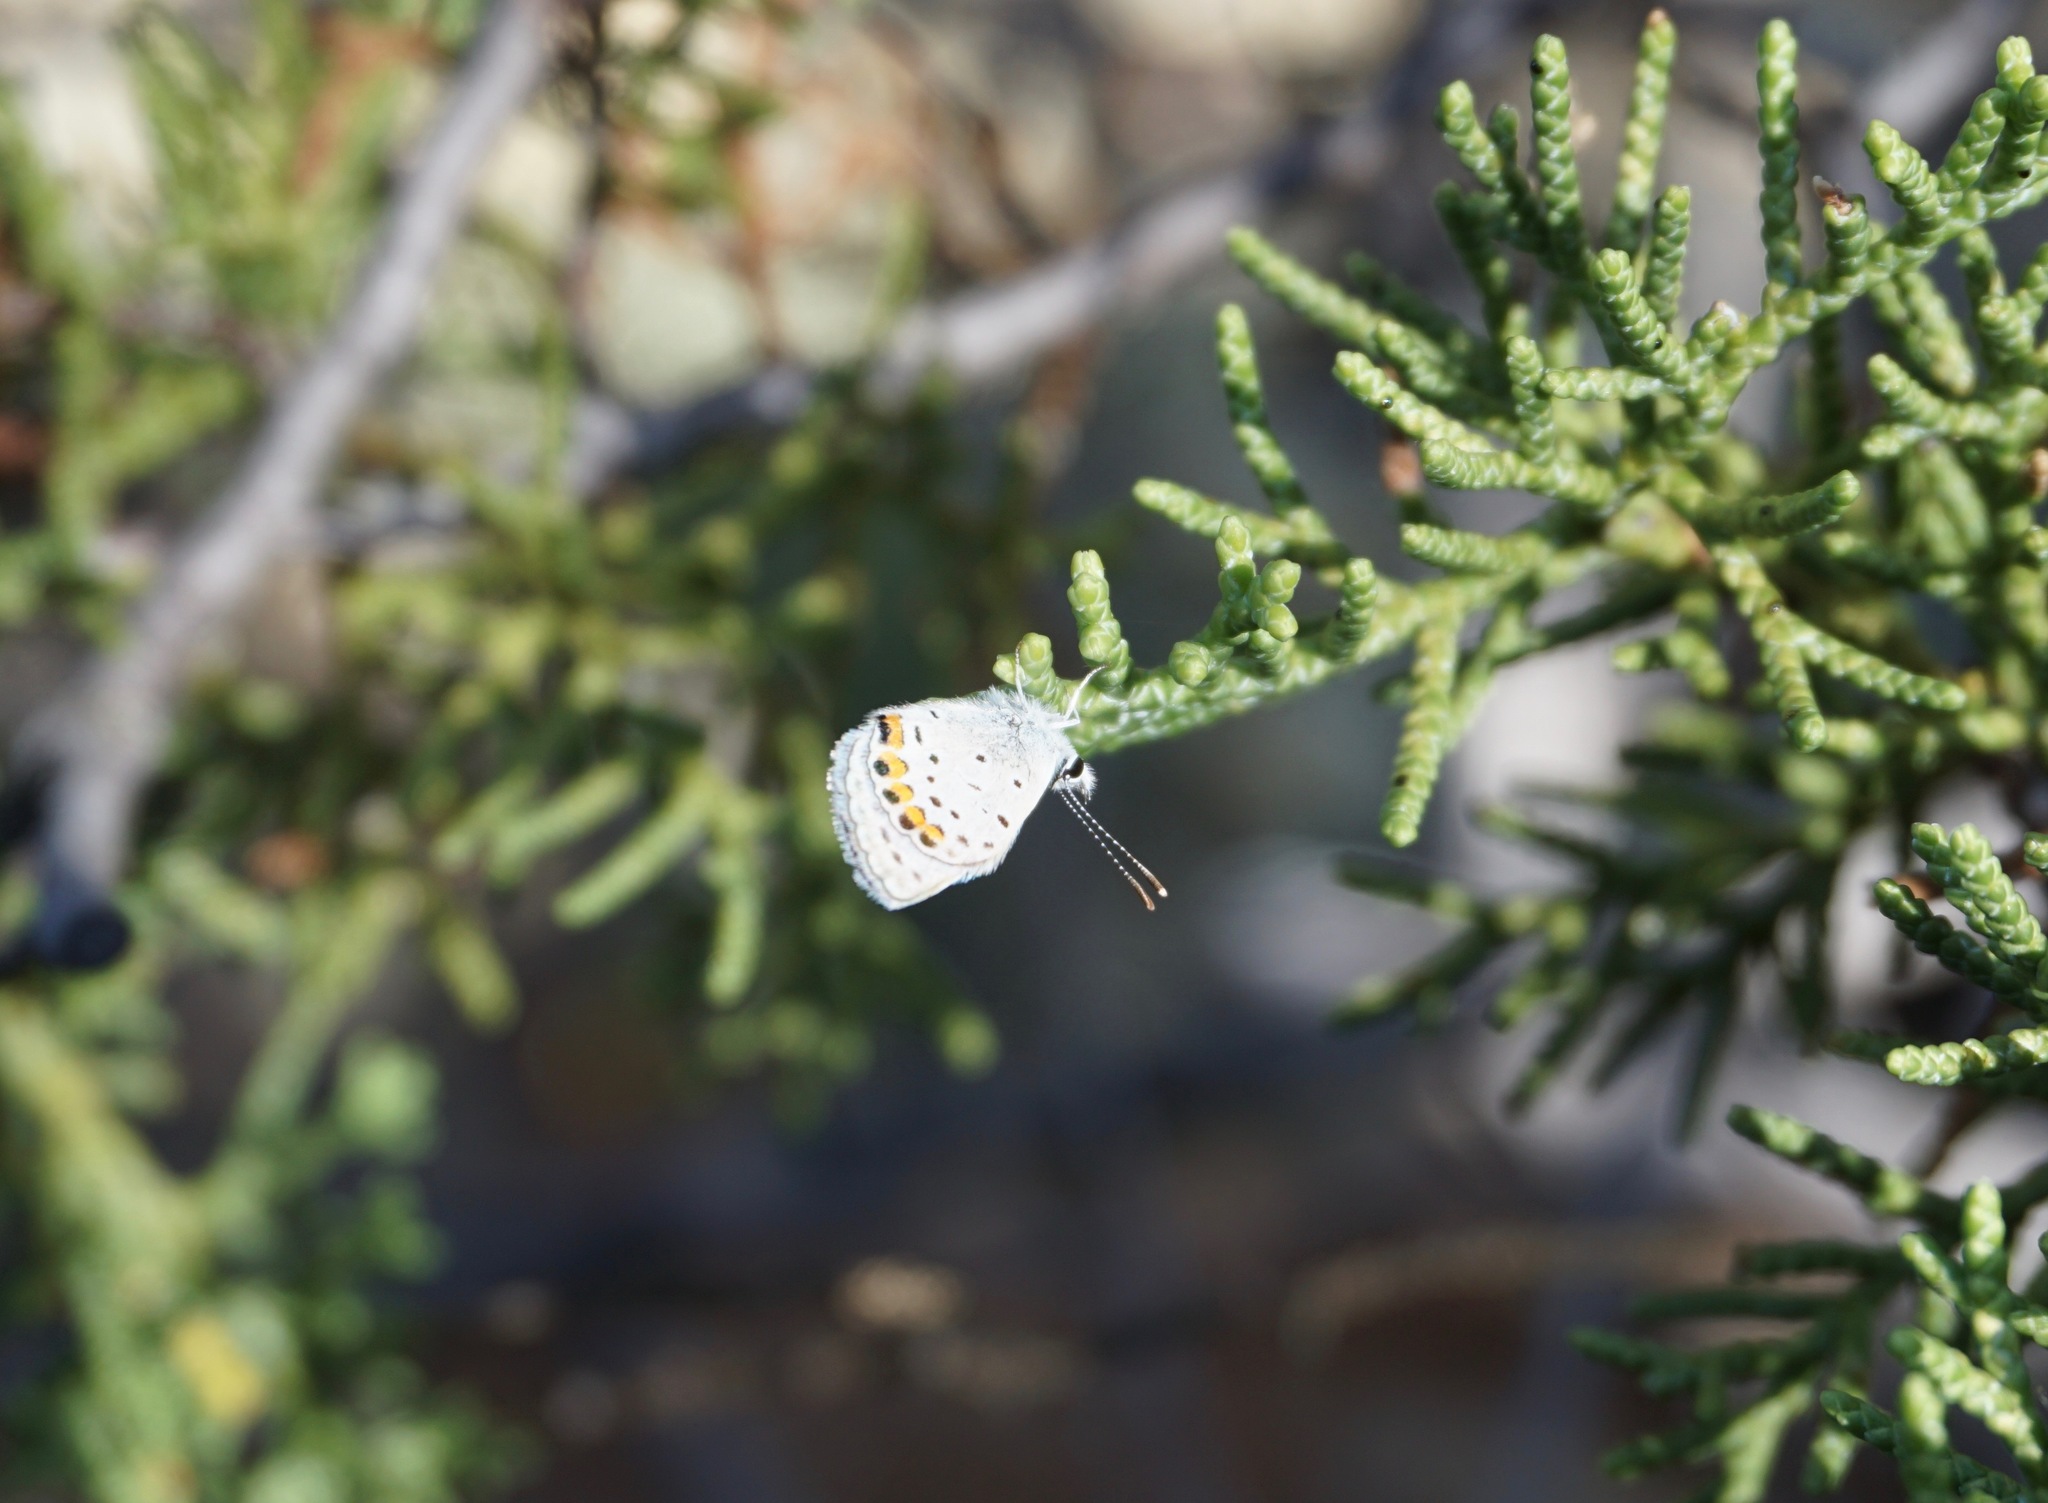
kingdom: Animalia
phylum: Arthropoda
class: Insecta
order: Lepidoptera
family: Lycaenidae
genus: Icaricia
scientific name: Icaricia acmon
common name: Acmon blue
